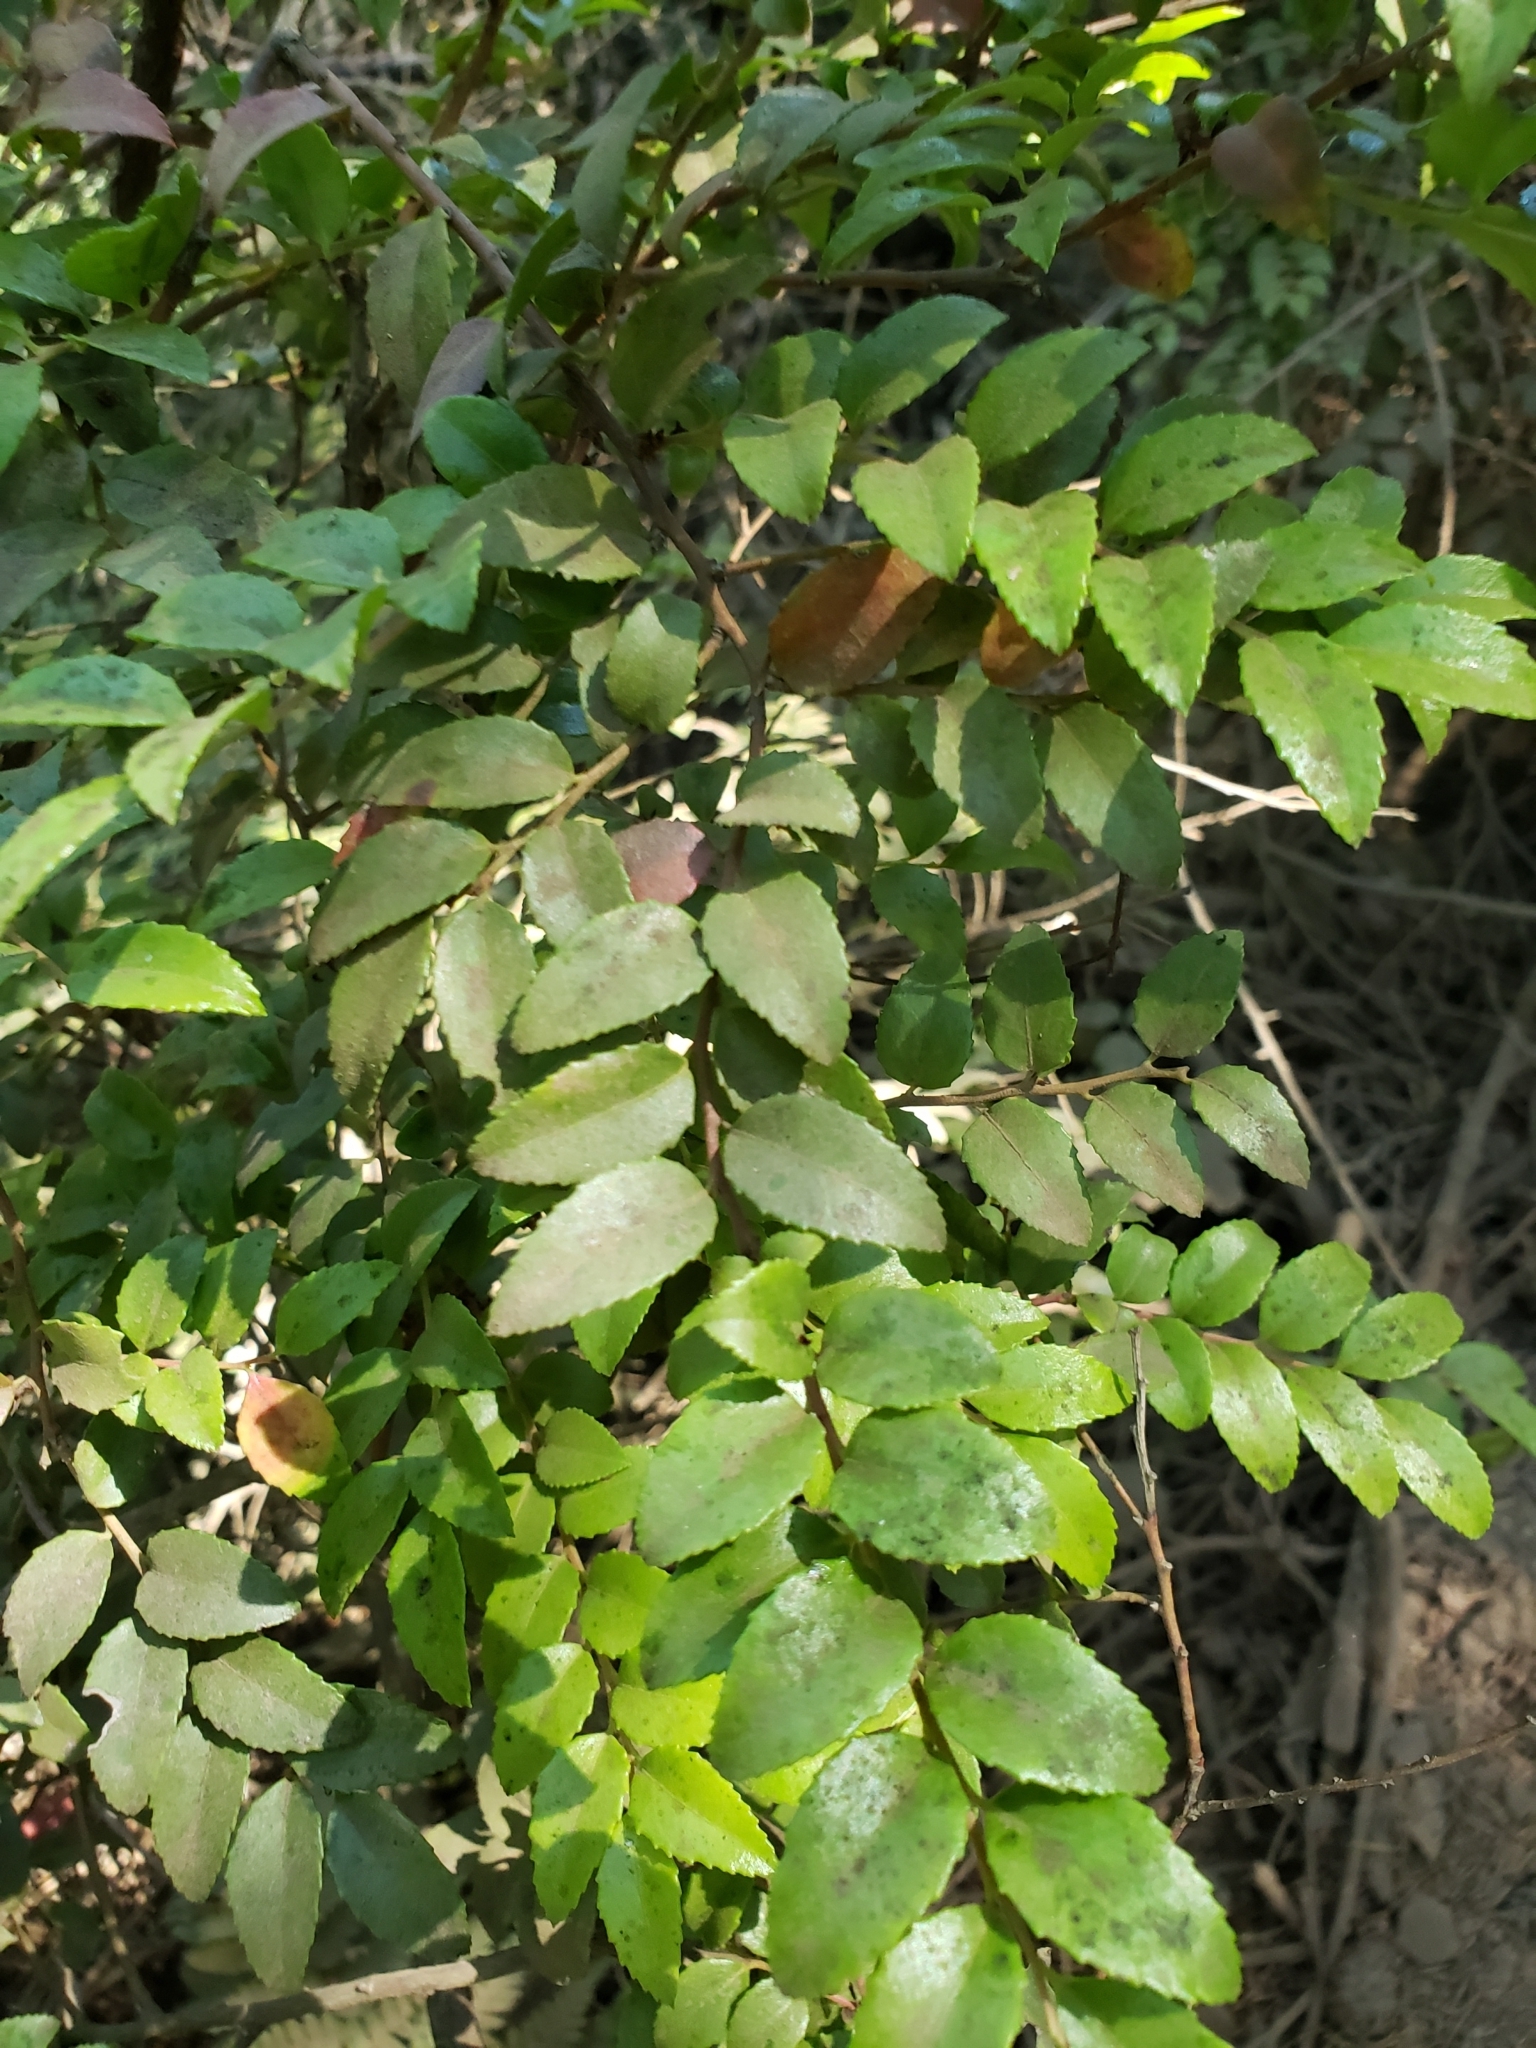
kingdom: Plantae
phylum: Tracheophyta
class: Magnoliopsida
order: Ericales
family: Ericaceae
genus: Vaccinium
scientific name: Vaccinium ovatum
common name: California-huckleberry
